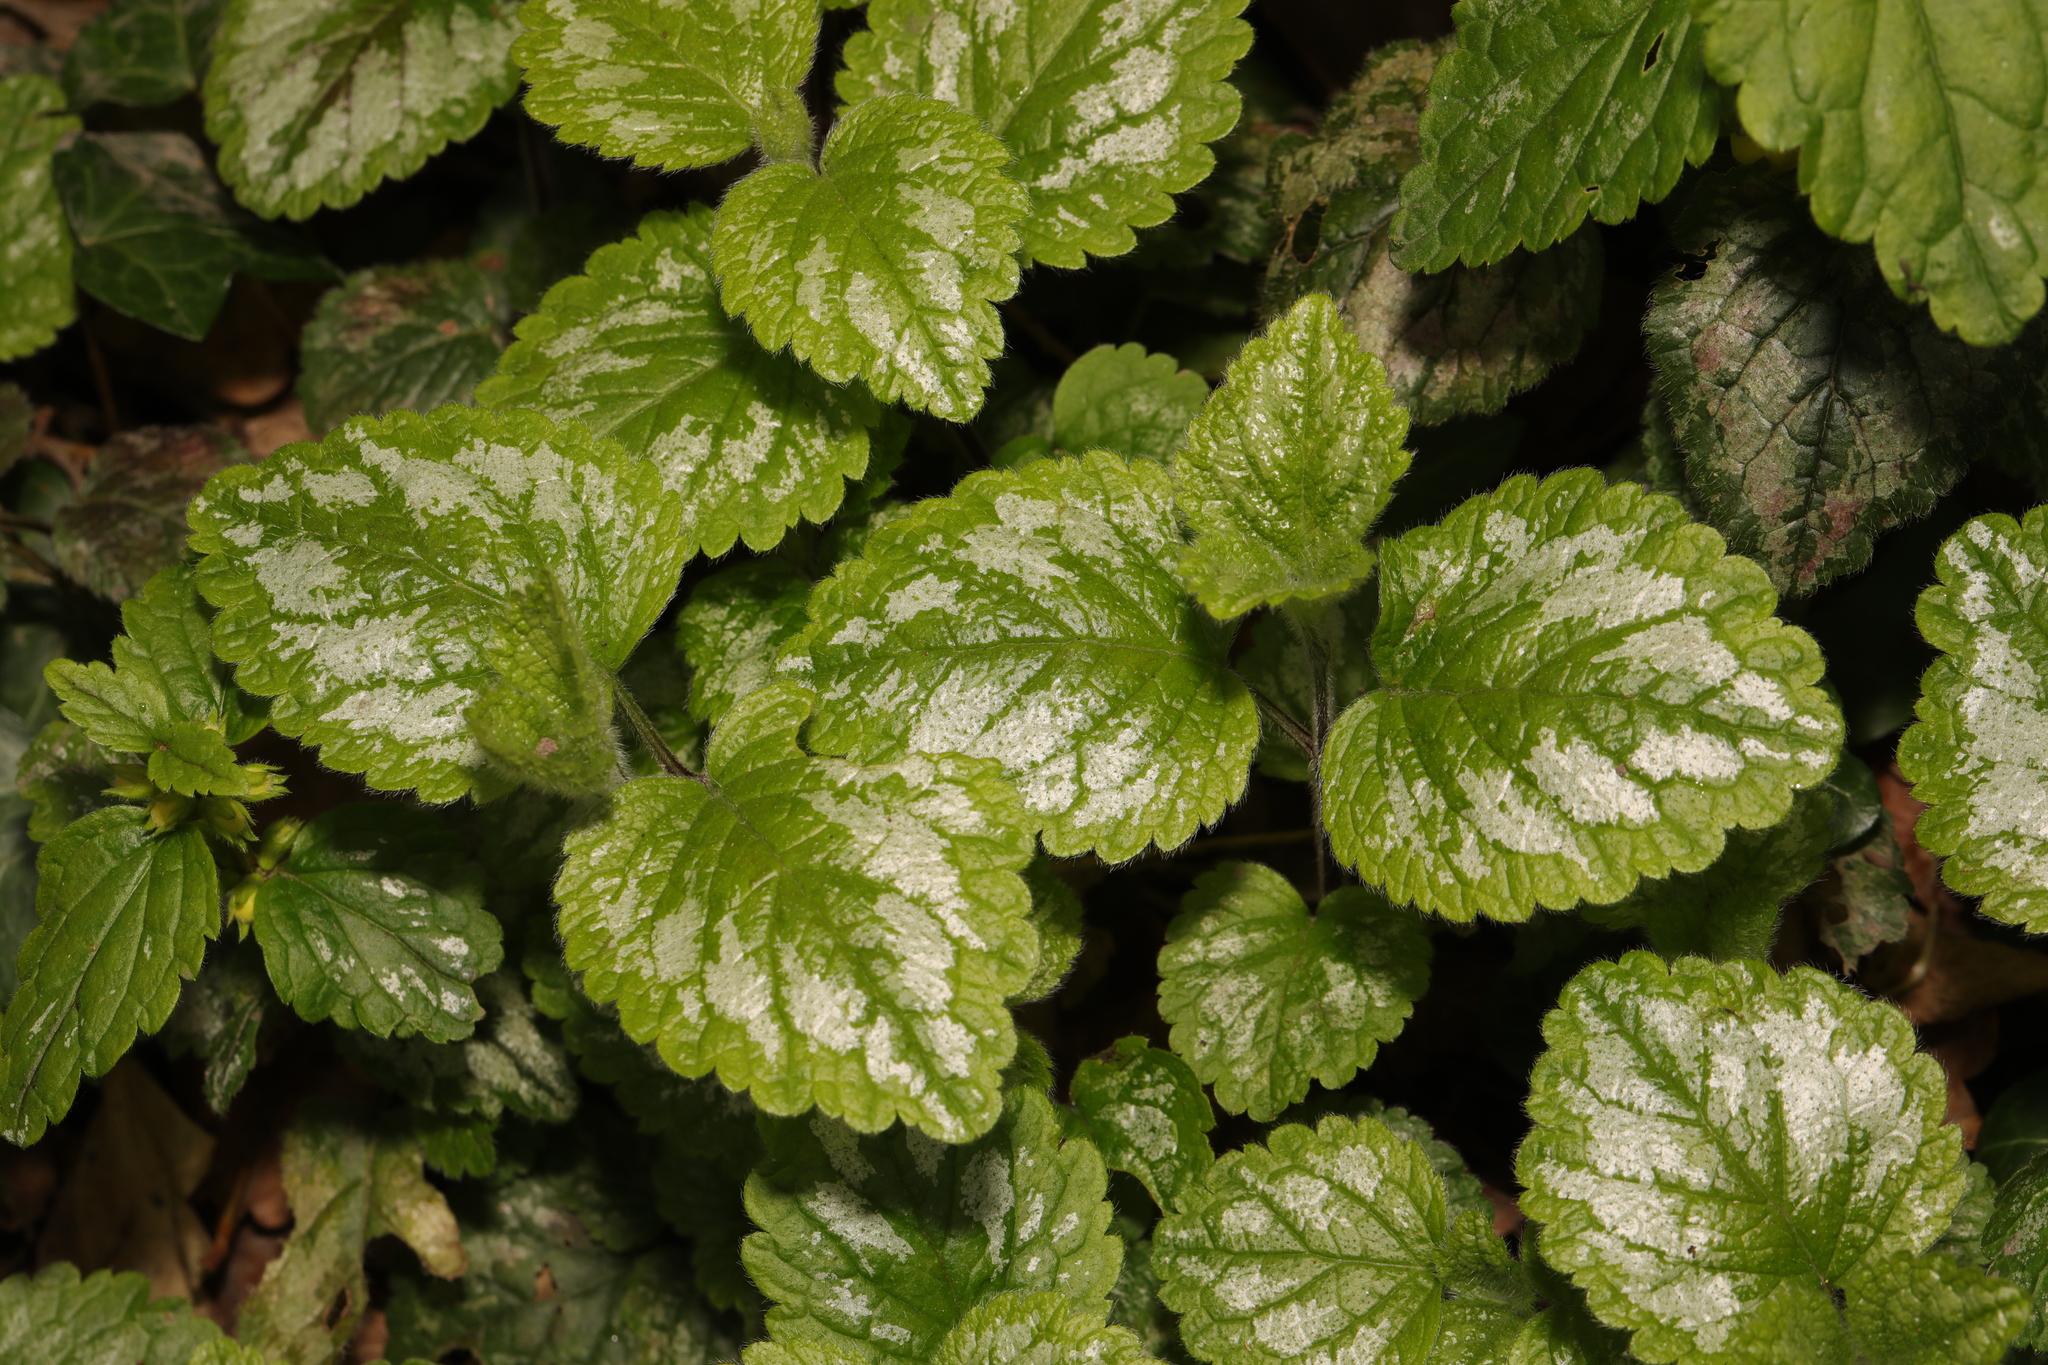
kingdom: Plantae
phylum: Tracheophyta
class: Magnoliopsida
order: Lamiales
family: Lamiaceae
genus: Lamium
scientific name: Lamium galeobdolon
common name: Yellow archangel
